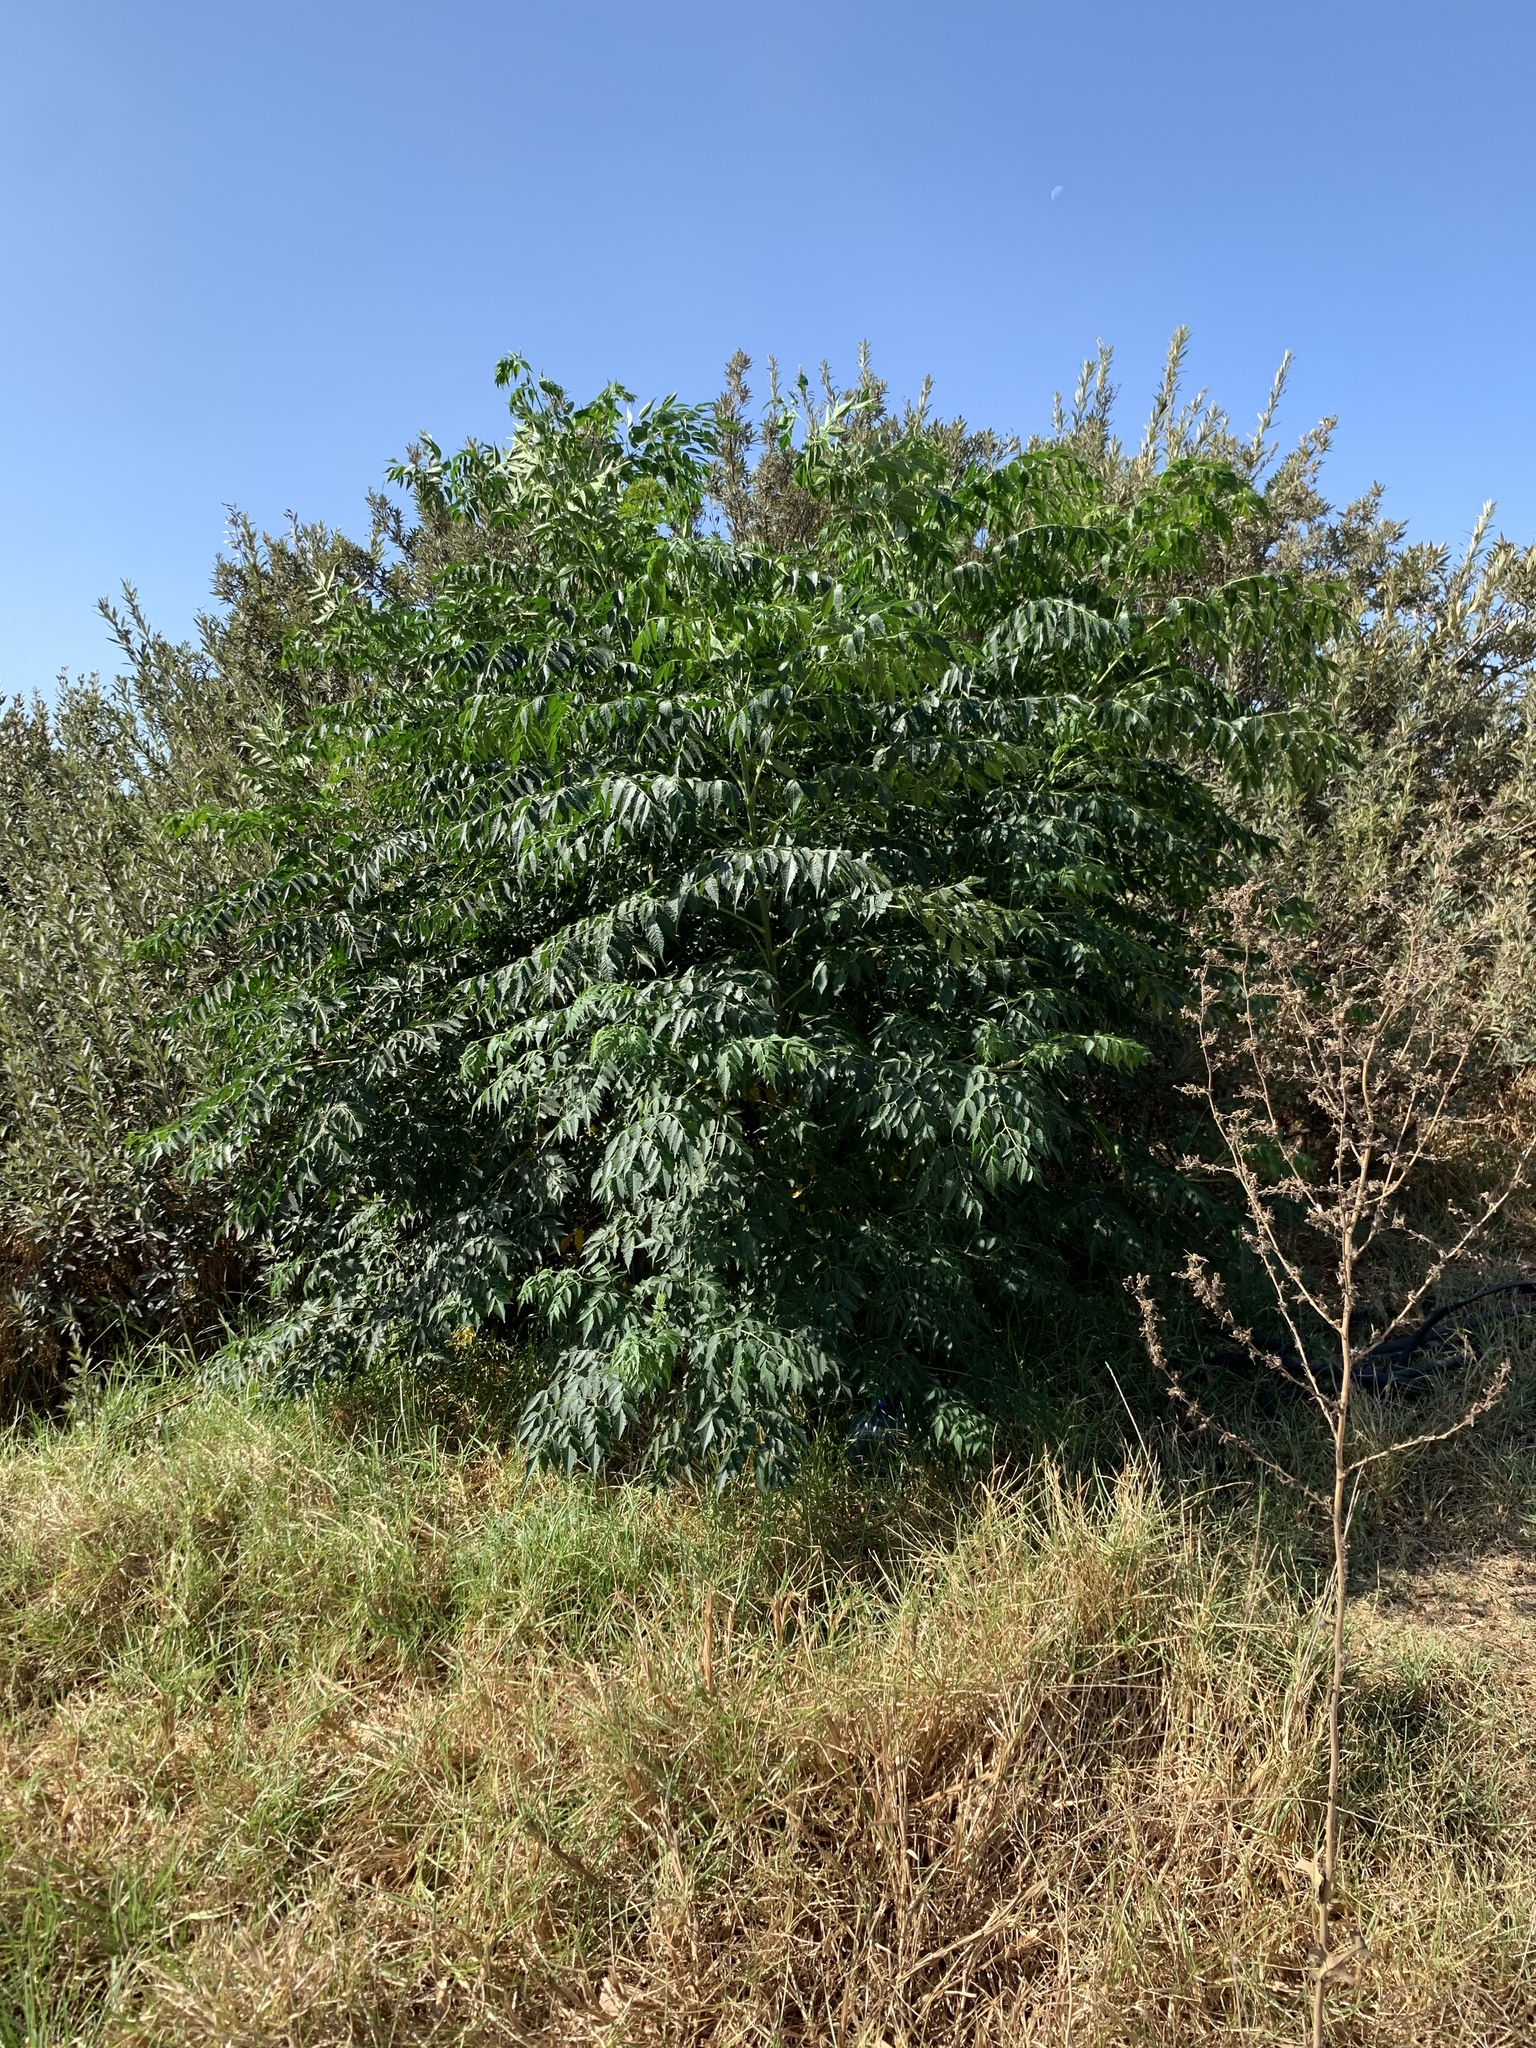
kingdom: Plantae
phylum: Tracheophyta
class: Magnoliopsida
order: Sapindales
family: Meliaceae
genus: Melia
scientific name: Melia azedarach
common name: Chinaberrytree
